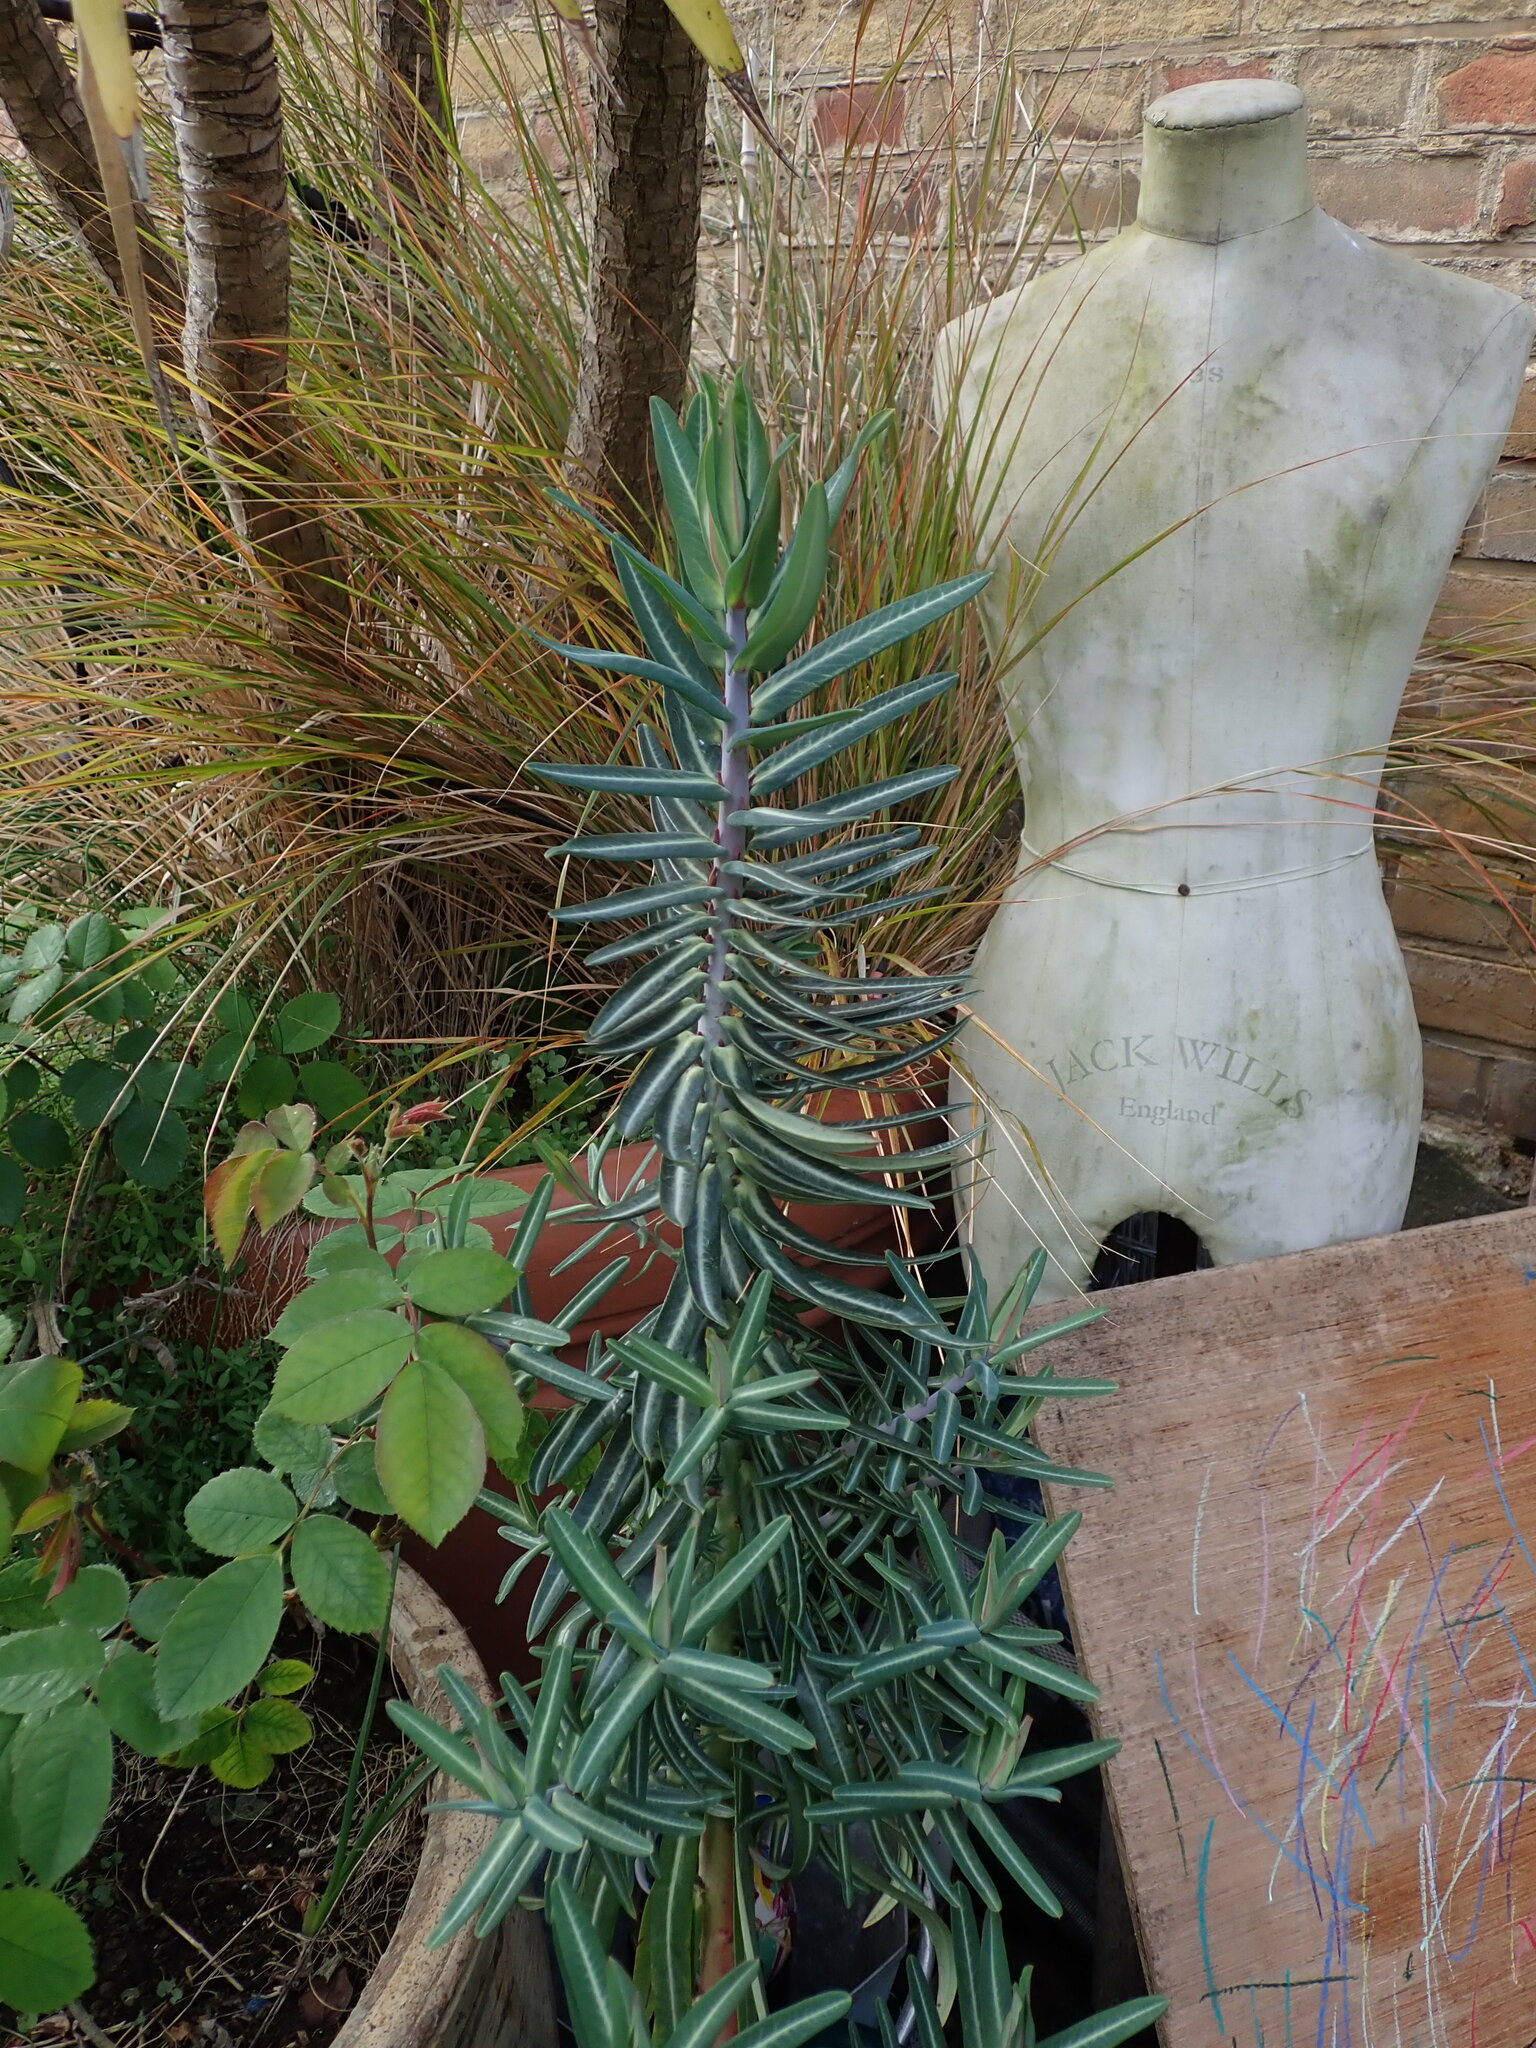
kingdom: Plantae
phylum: Tracheophyta
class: Magnoliopsida
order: Malpighiales
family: Euphorbiaceae
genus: Euphorbia
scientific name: Euphorbia lathyris
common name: Caper spurge
